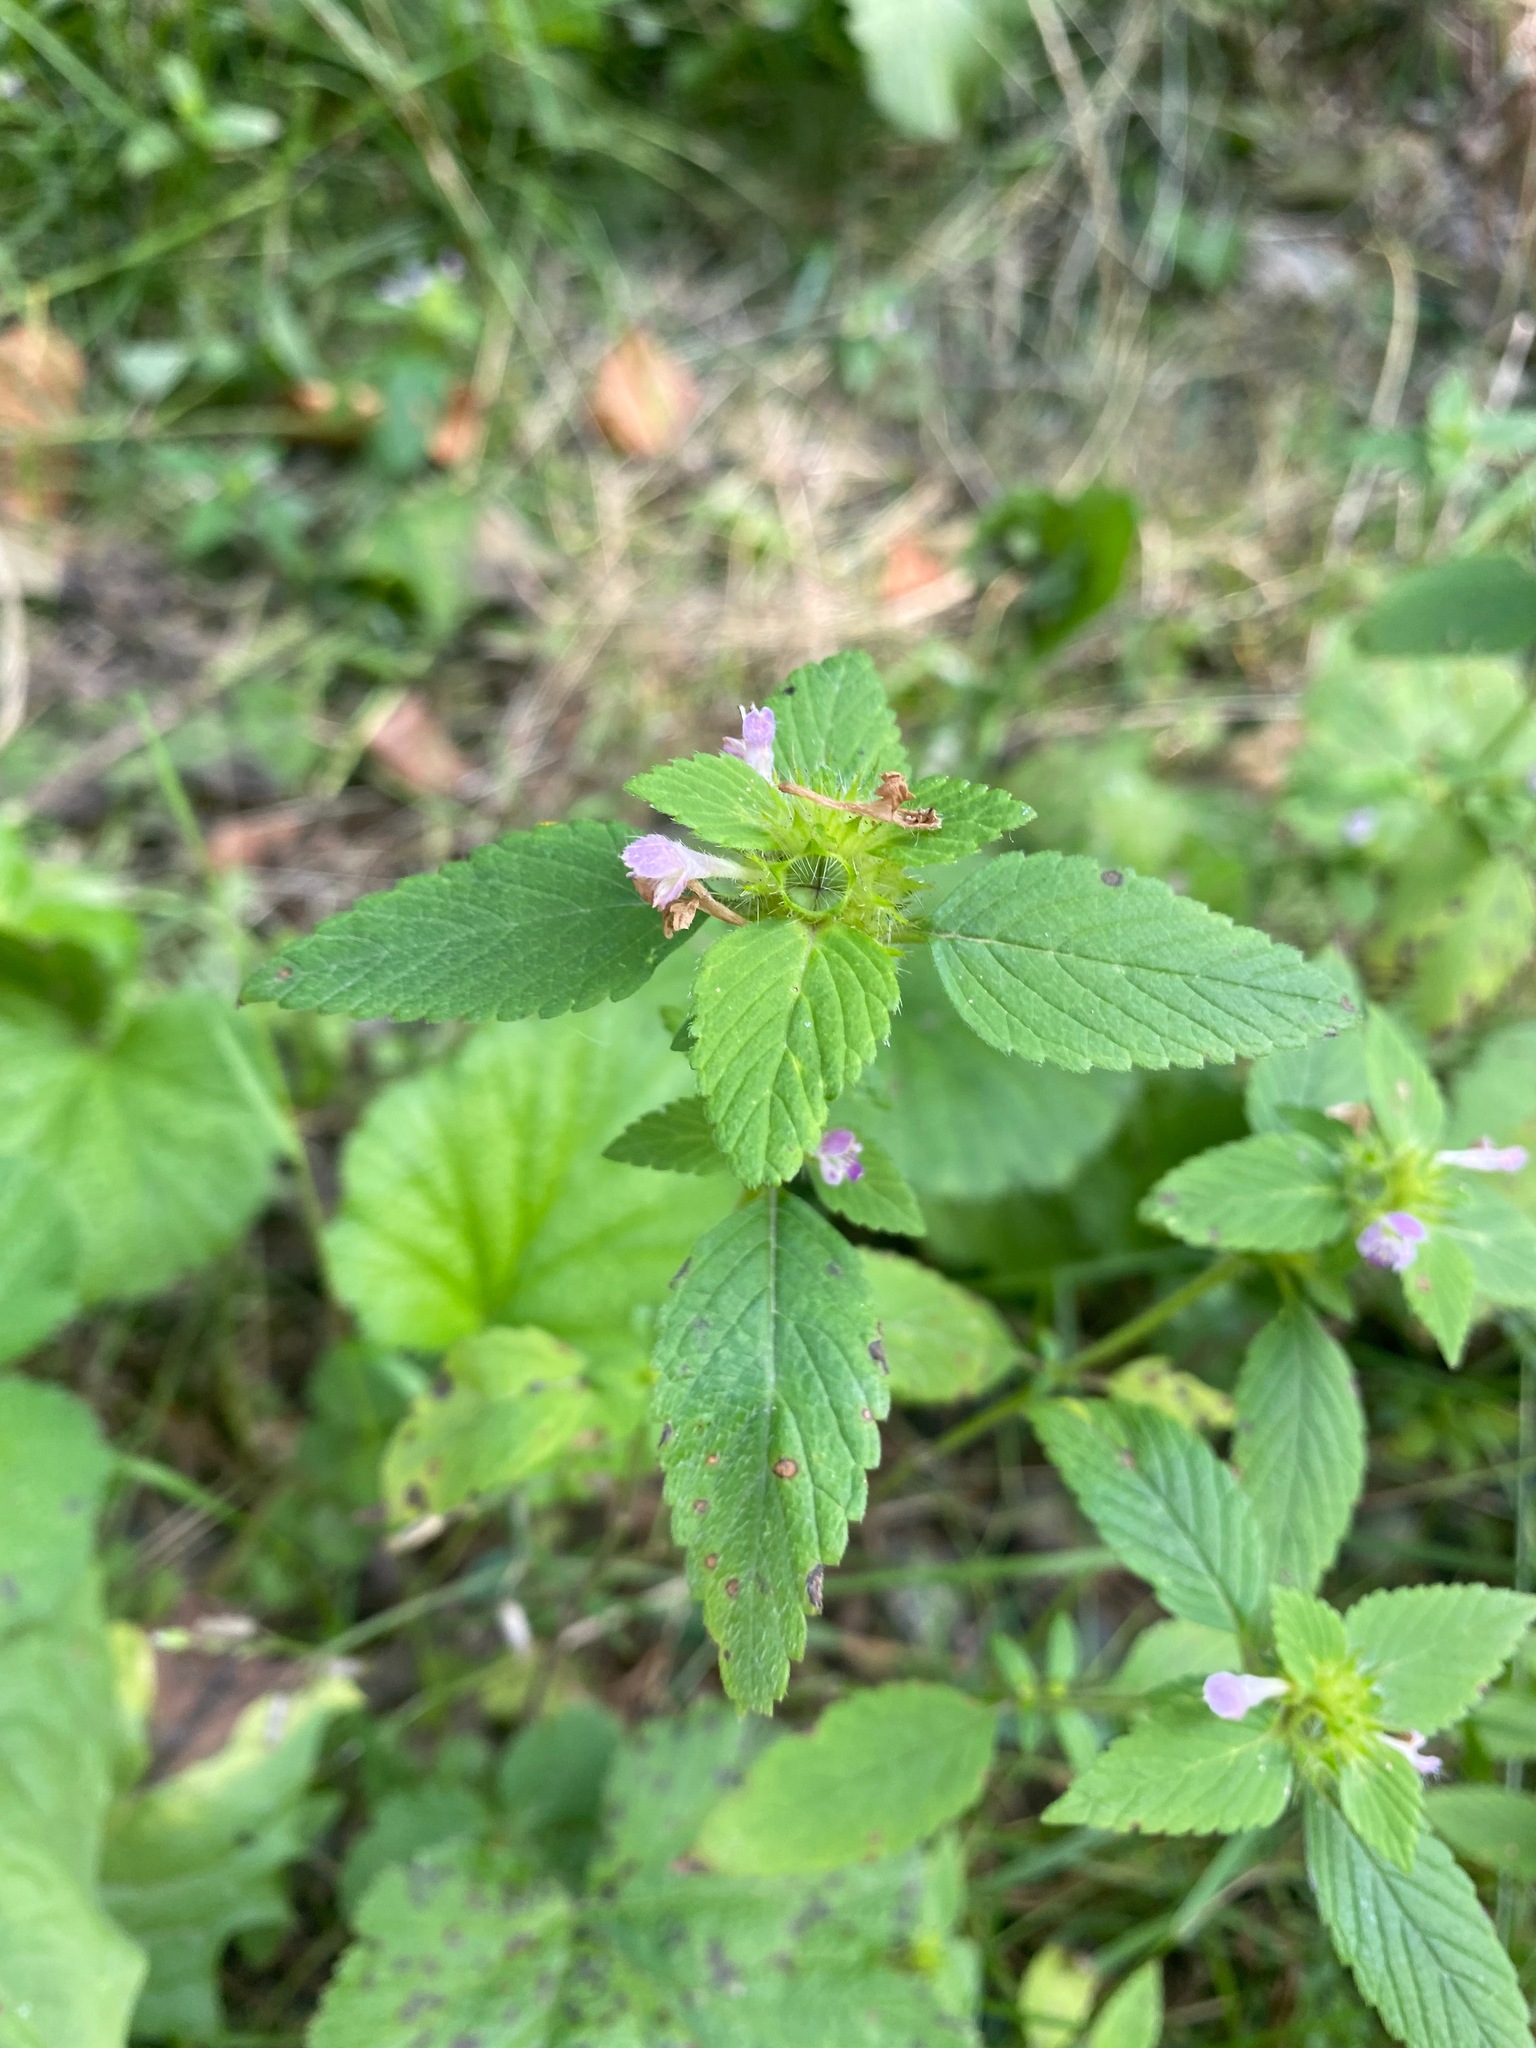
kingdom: Plantae
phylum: Tracheophyta
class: Magnoliopsida
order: Lamiales
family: Lamiaceae
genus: Galeopsis
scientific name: Galeopsis bifida
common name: Bifid hemp-nettle
